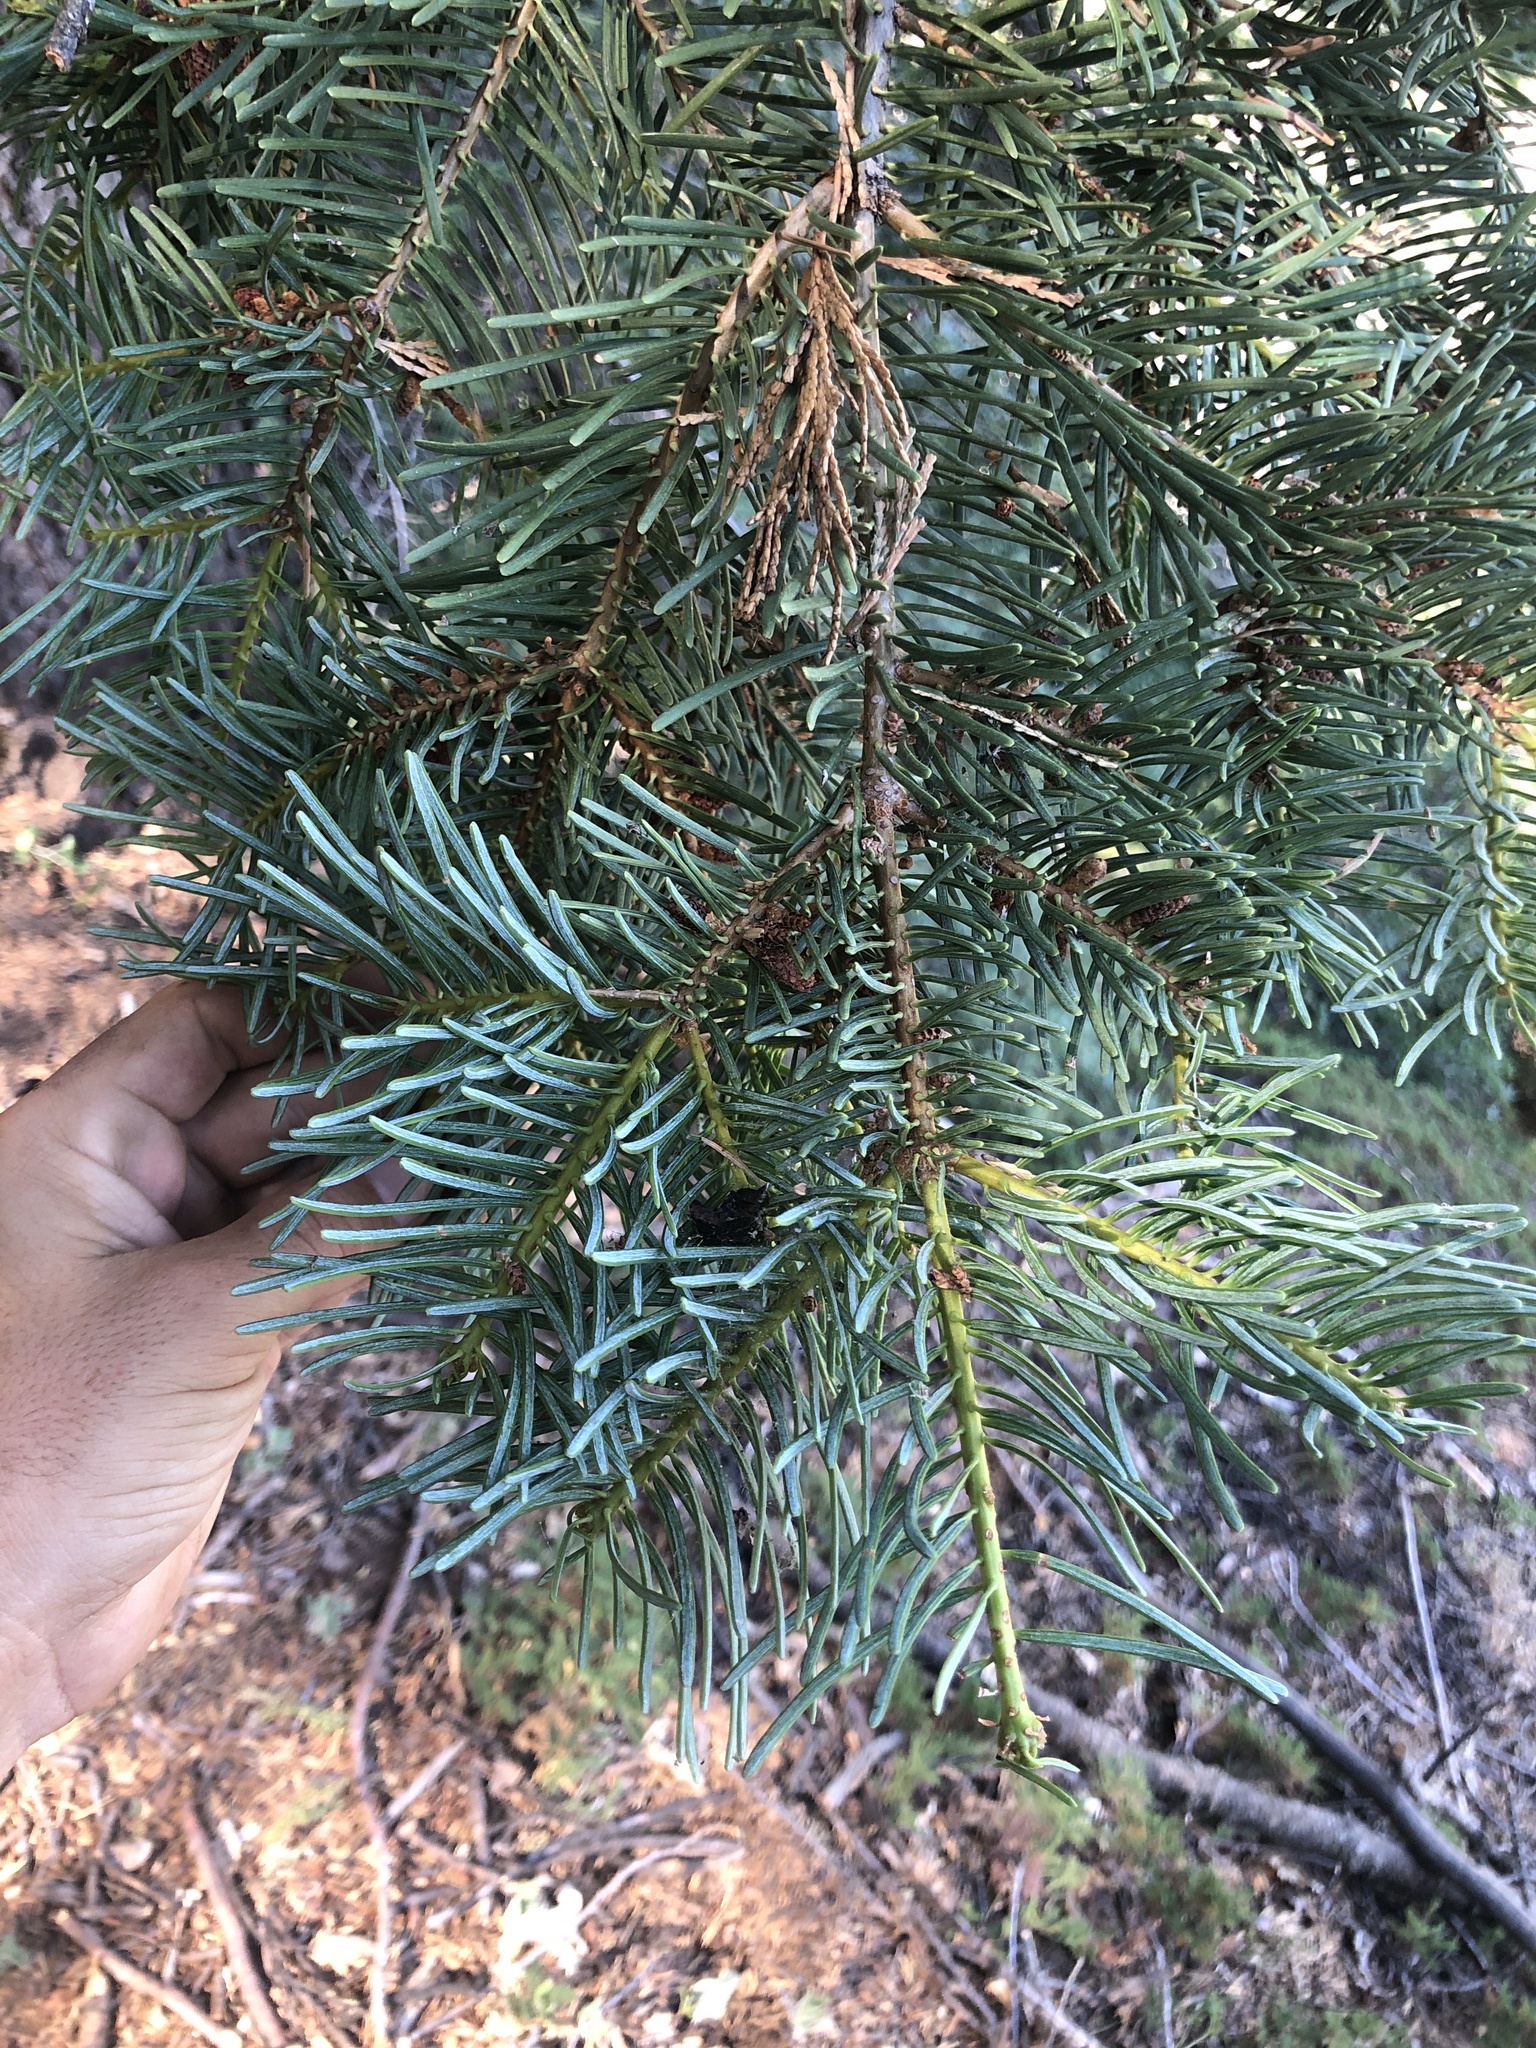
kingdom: Plantae
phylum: Tracheophyta
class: Pinopsida
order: Pinales
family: Pinaceae
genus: Abies
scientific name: Abies concolor
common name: Colorado fir
